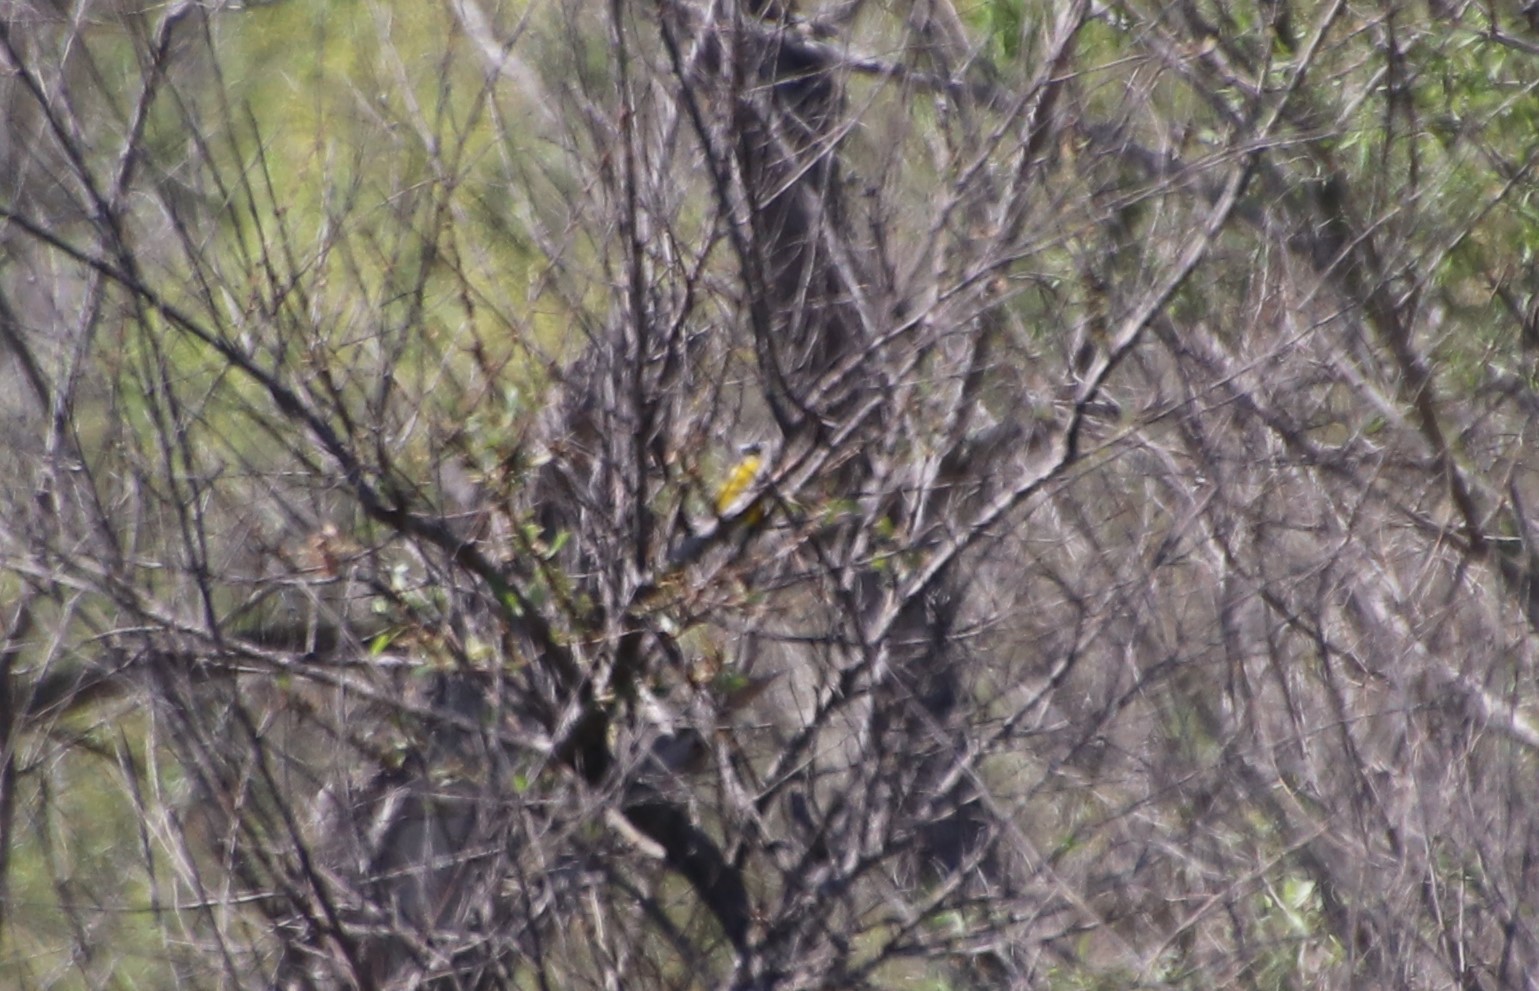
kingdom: Animalia
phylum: Chordata
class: Aves
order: Passeriformes
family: Parulidae
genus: Icteria
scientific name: Icteria virens
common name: Yellow-breasted chat
